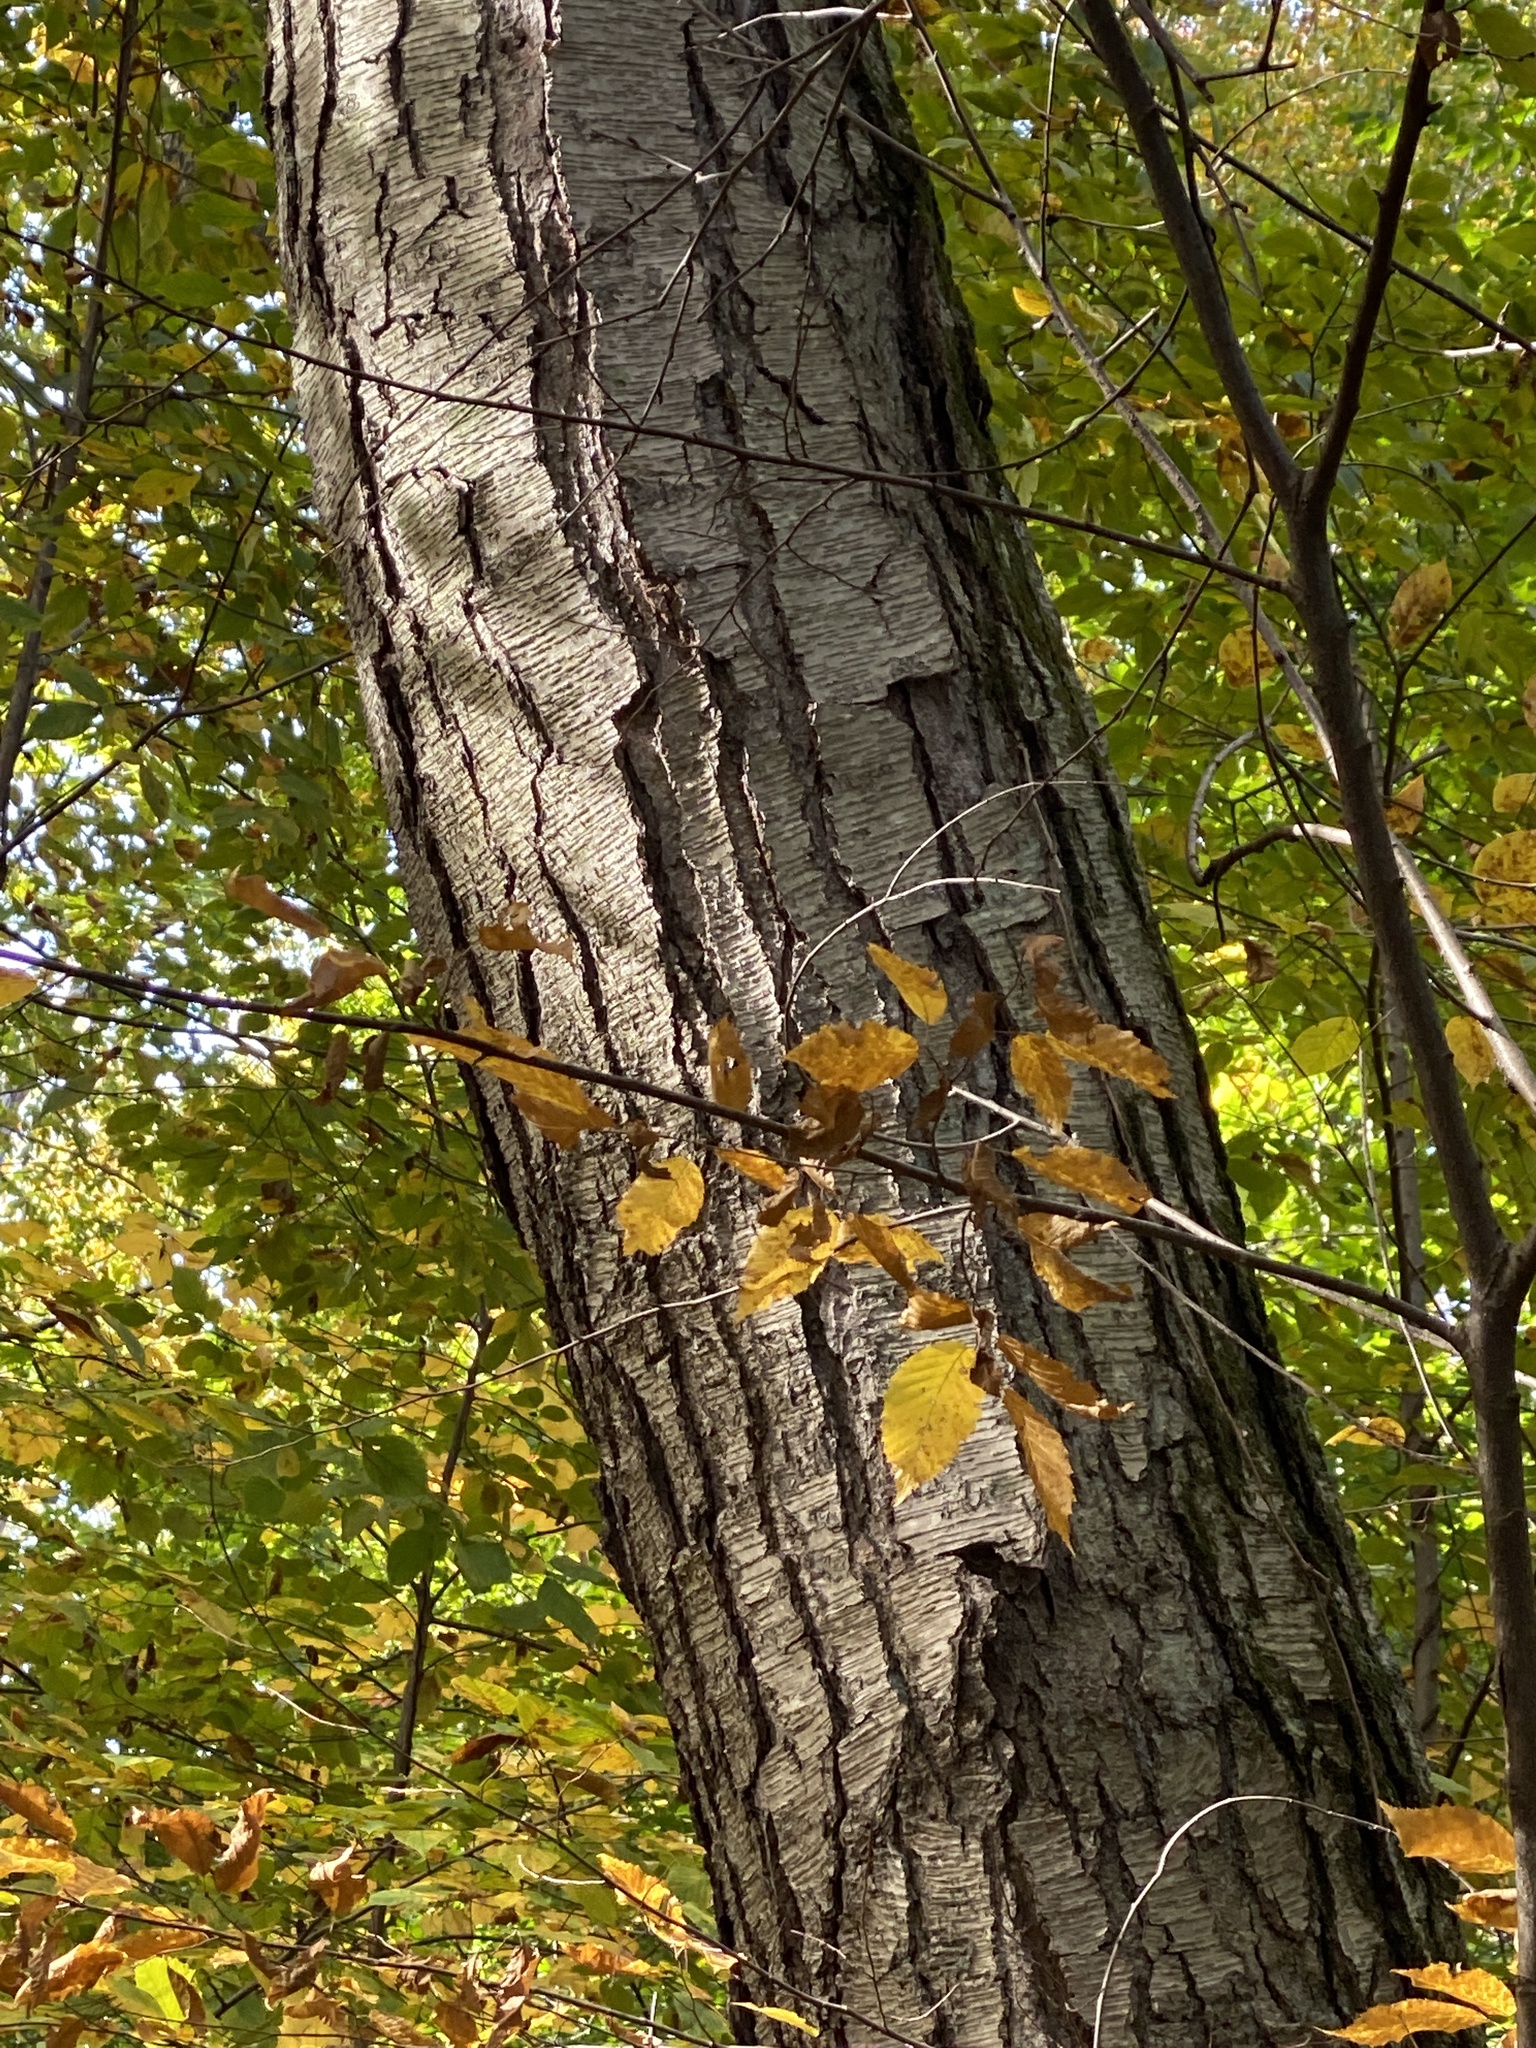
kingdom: Plantae
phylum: Tracheophyta
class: Magnoliopsida
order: Fagales
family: Betulaceae
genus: Betula
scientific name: Betula lenta
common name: Black birch
